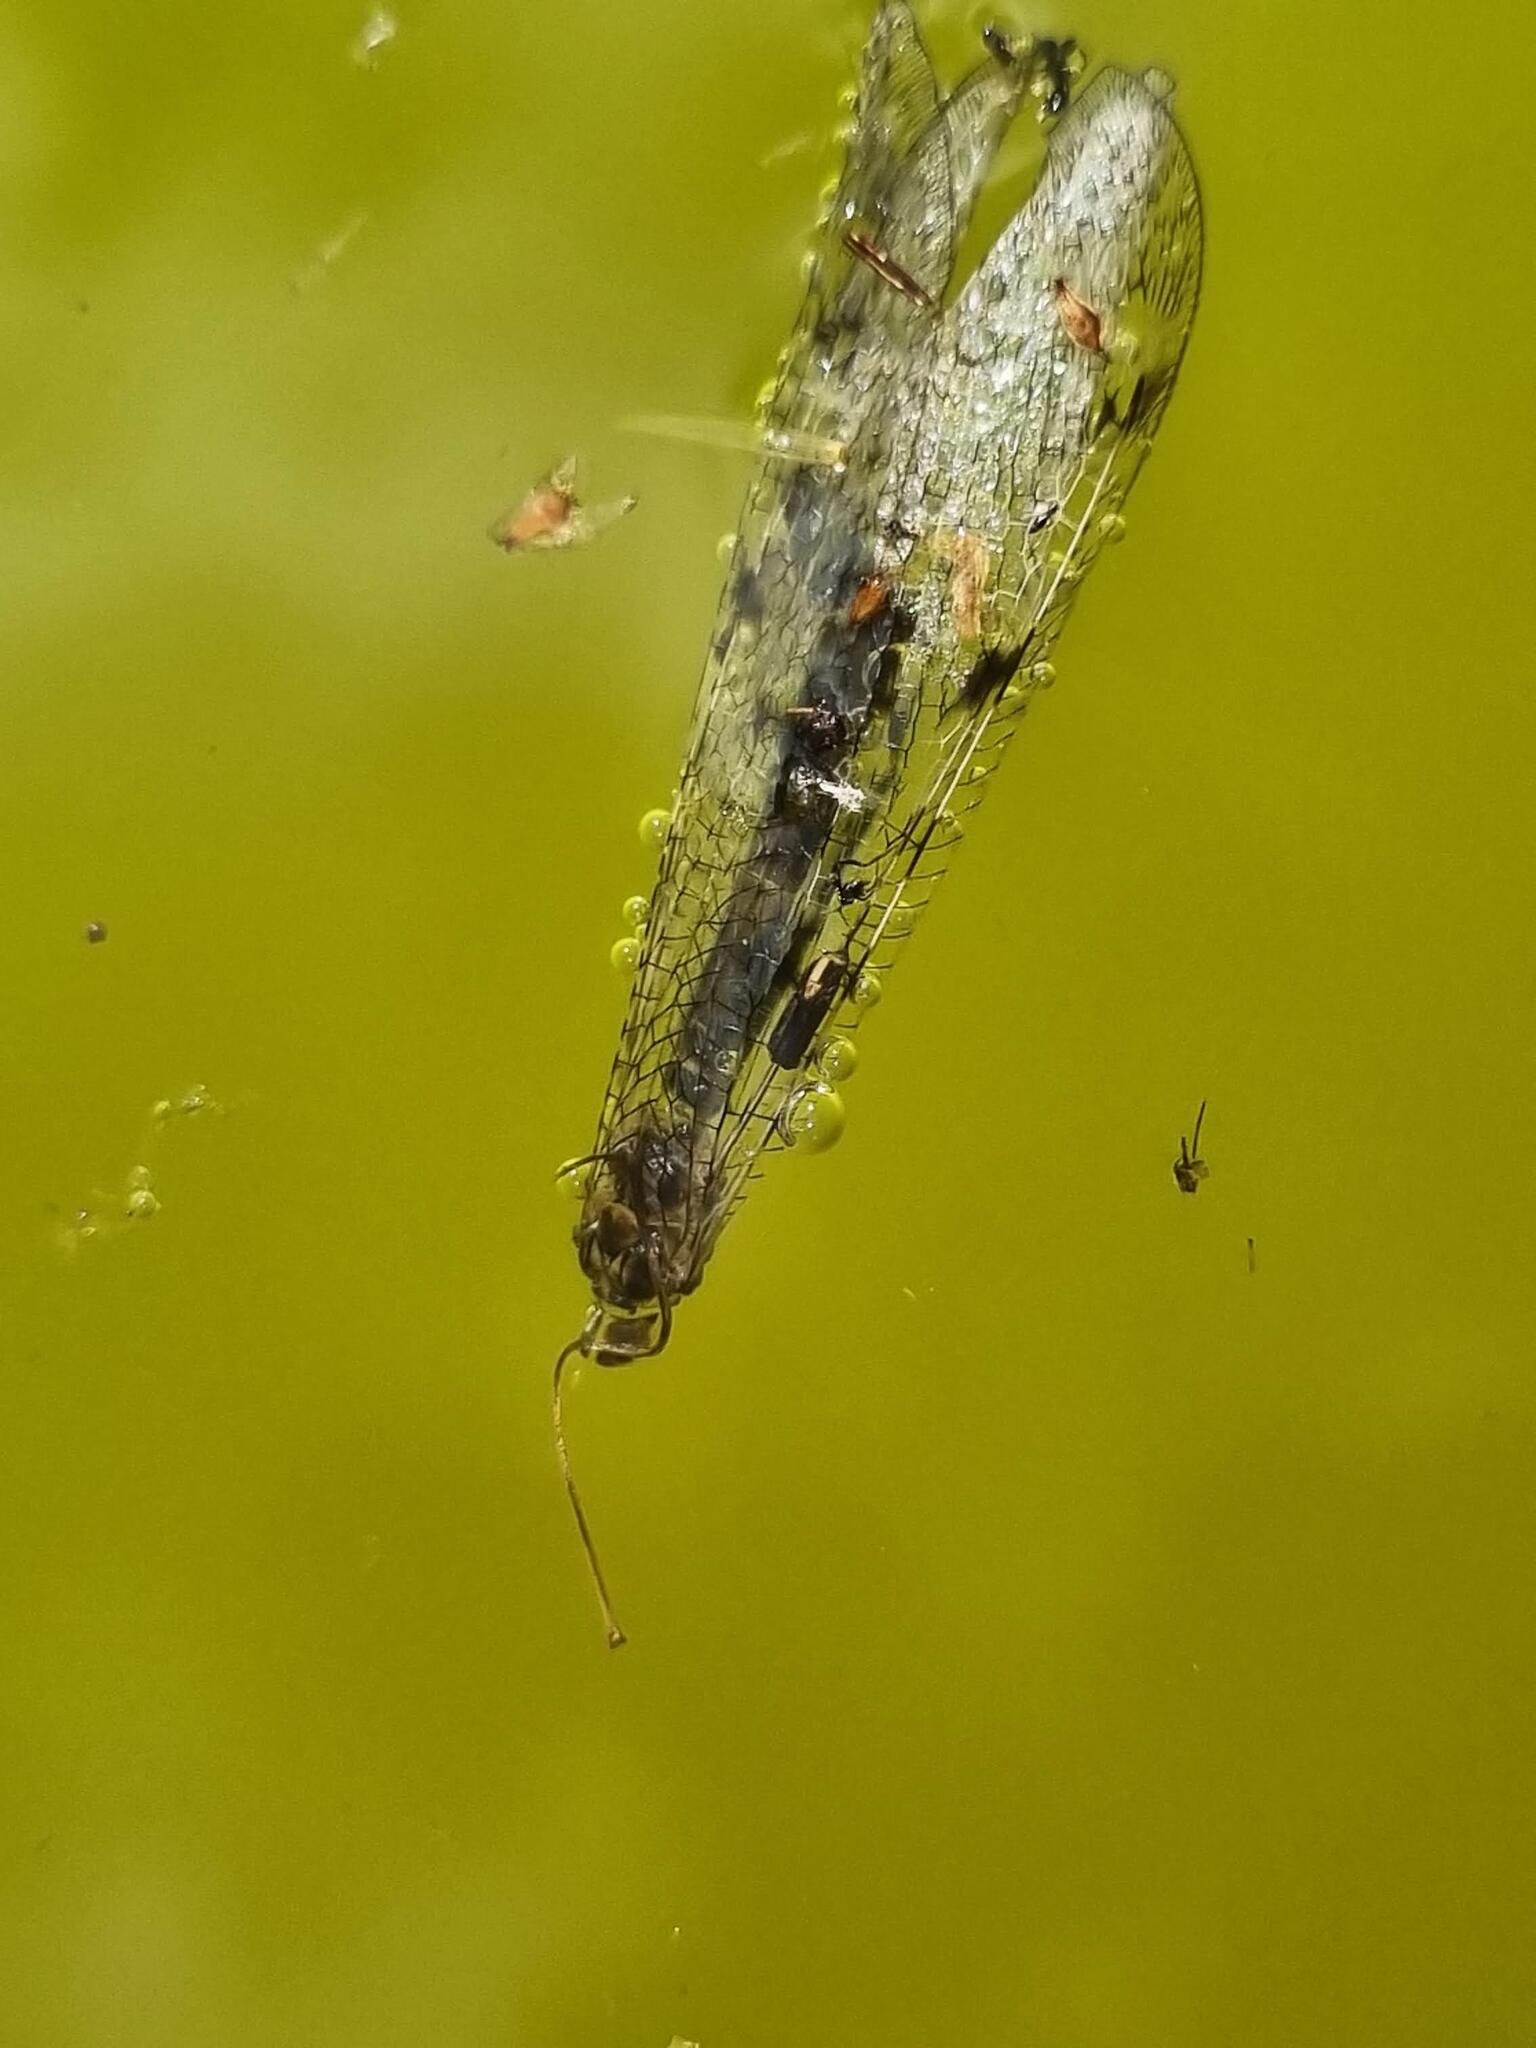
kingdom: Animalia
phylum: Arthropoda
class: Insecta
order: Neuroptera
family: Myrmeleontidae
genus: Euroleon
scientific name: Euroleon nostras
